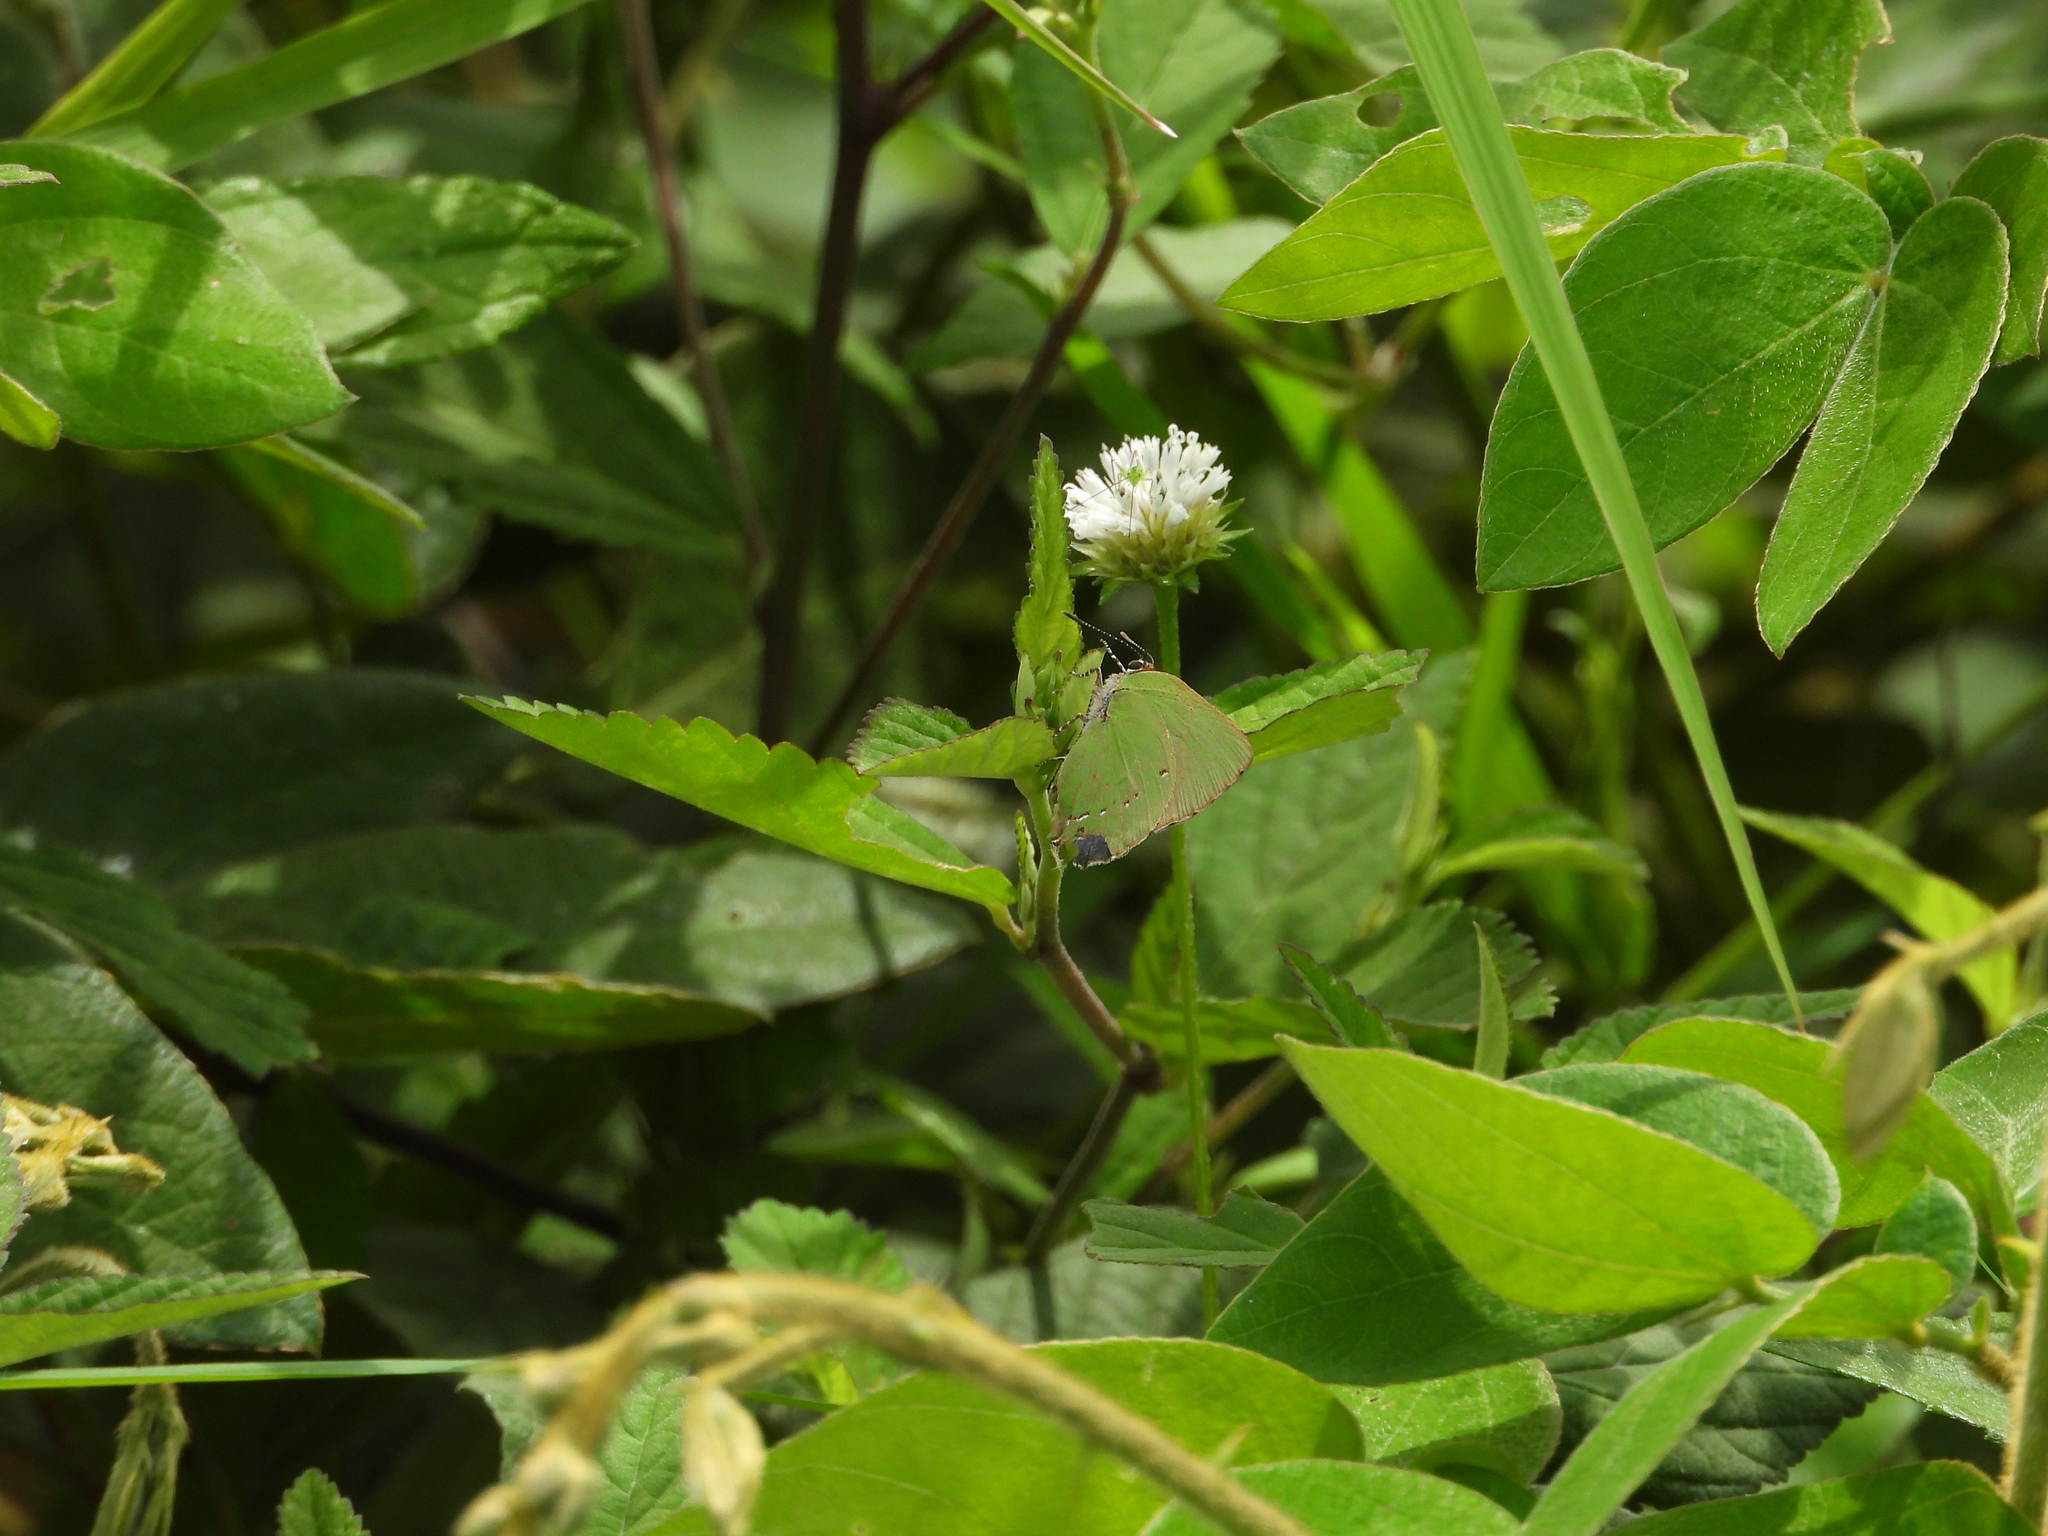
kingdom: Animalia
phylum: Arthropoda
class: Insecta
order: Lepidoptera
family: Lycaenidae
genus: Thecla
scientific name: Thecla amyntor
